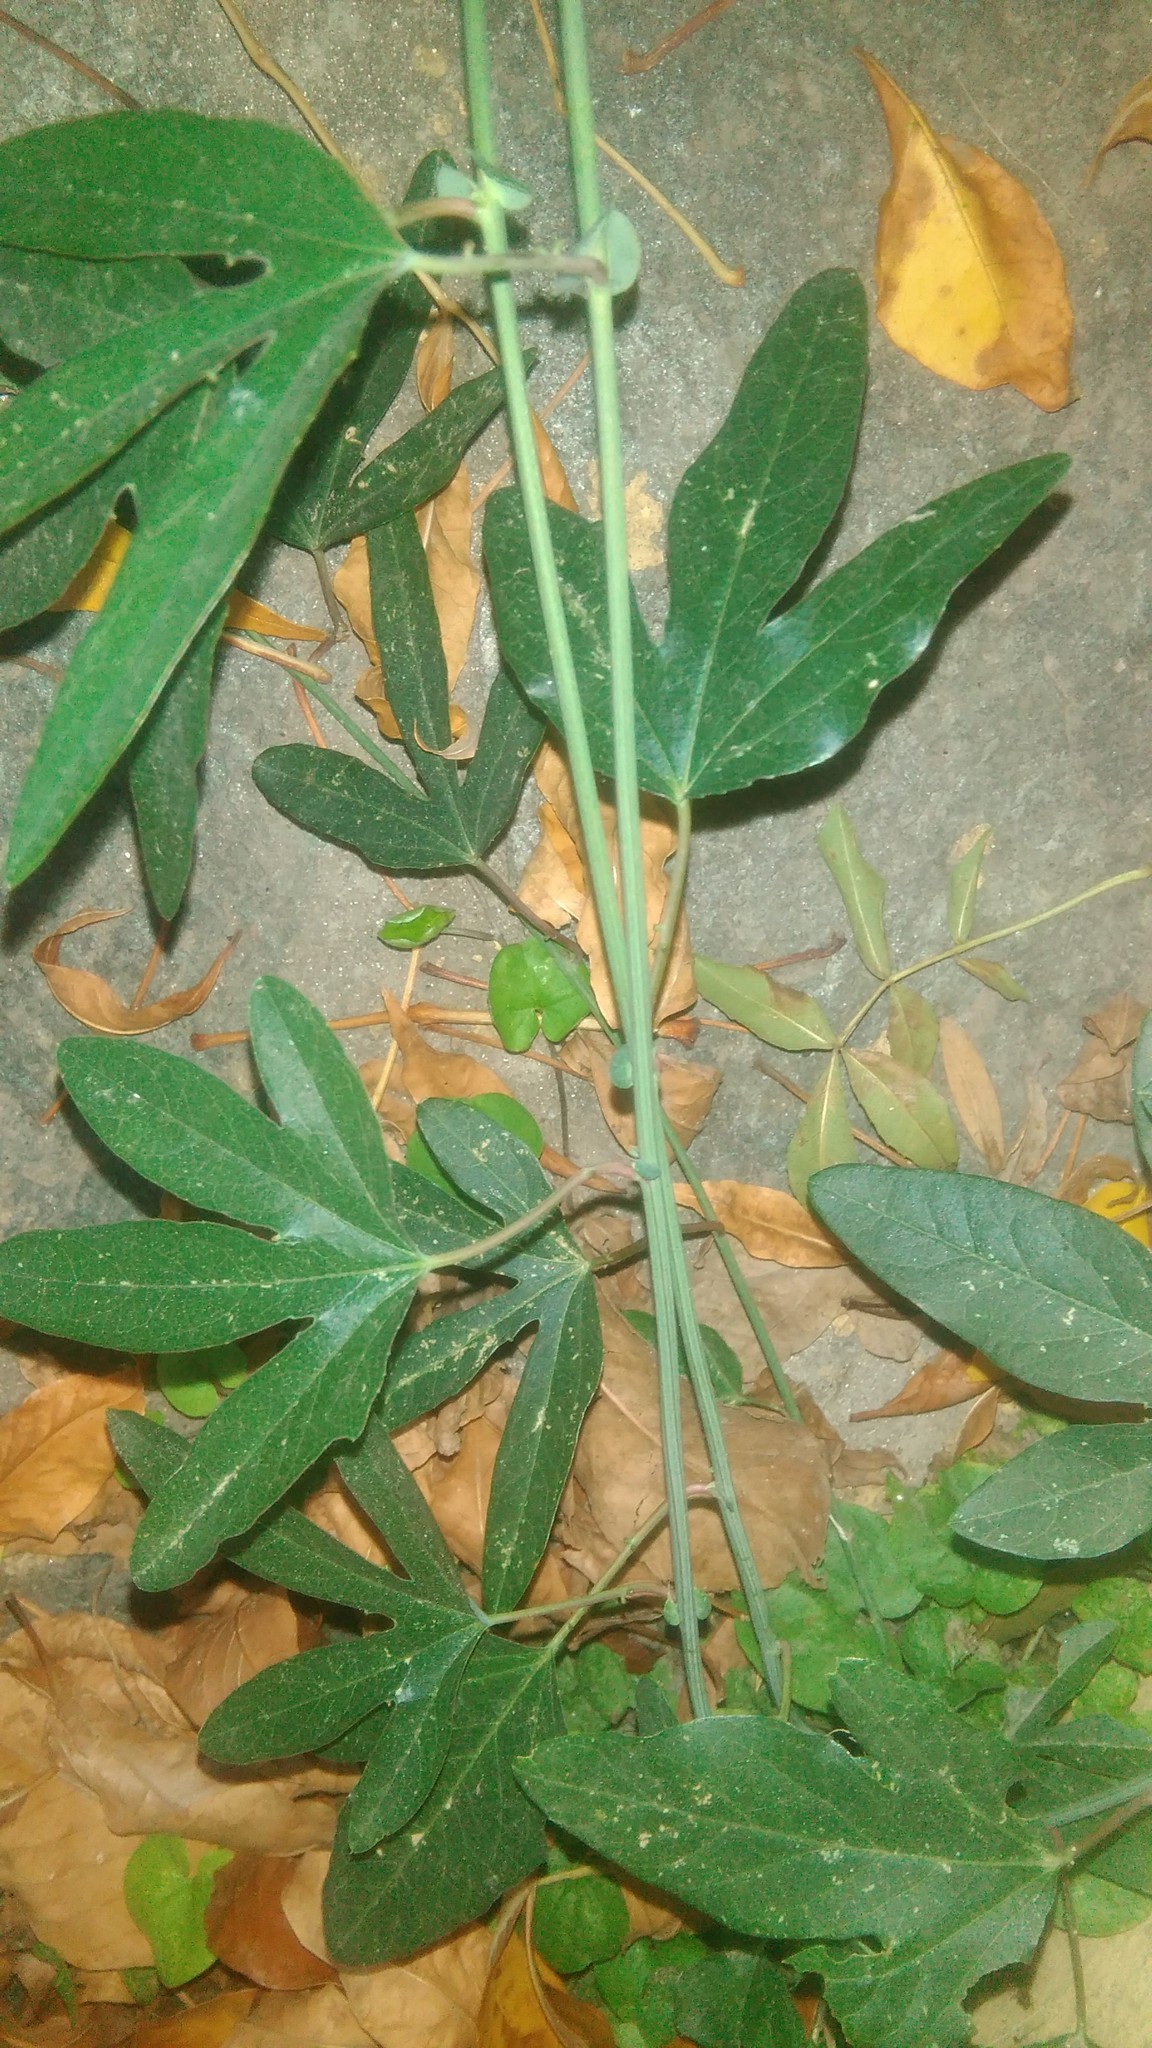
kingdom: Plantae
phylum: Tracheophyta
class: Magnoliopsida
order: Malpighiales
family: Passifloraceae
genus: Passiflora
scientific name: Passiflora caerulea
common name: Blue passionflower
